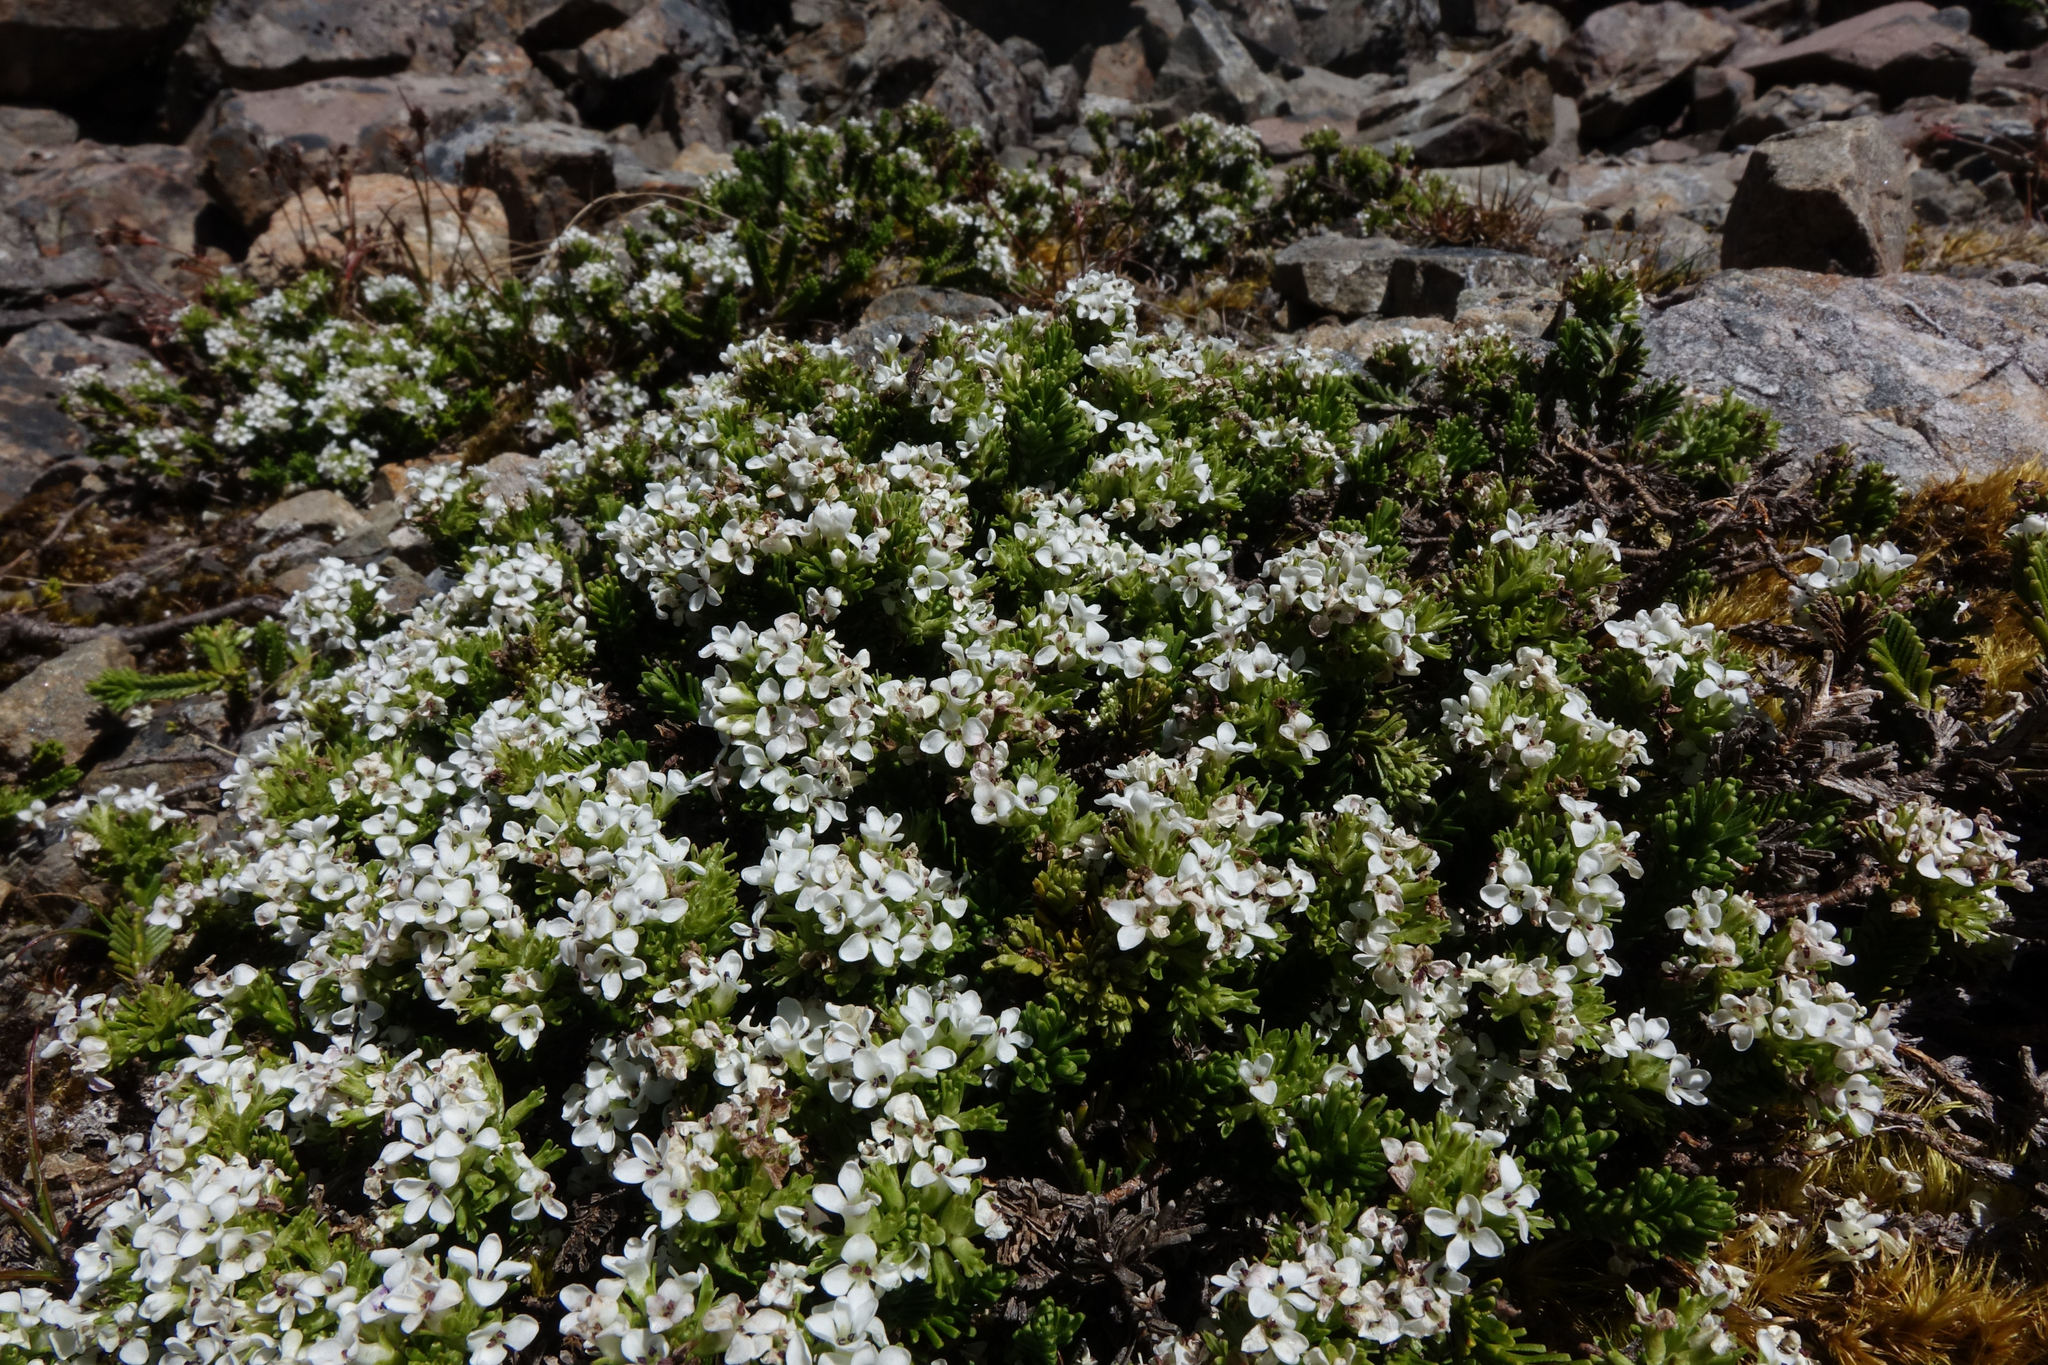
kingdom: Plantae
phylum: Tracheophyta
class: Magnoliopsida
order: Lamiales
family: Plantaginaceae
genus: Veronica
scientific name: Veronica hookeri
